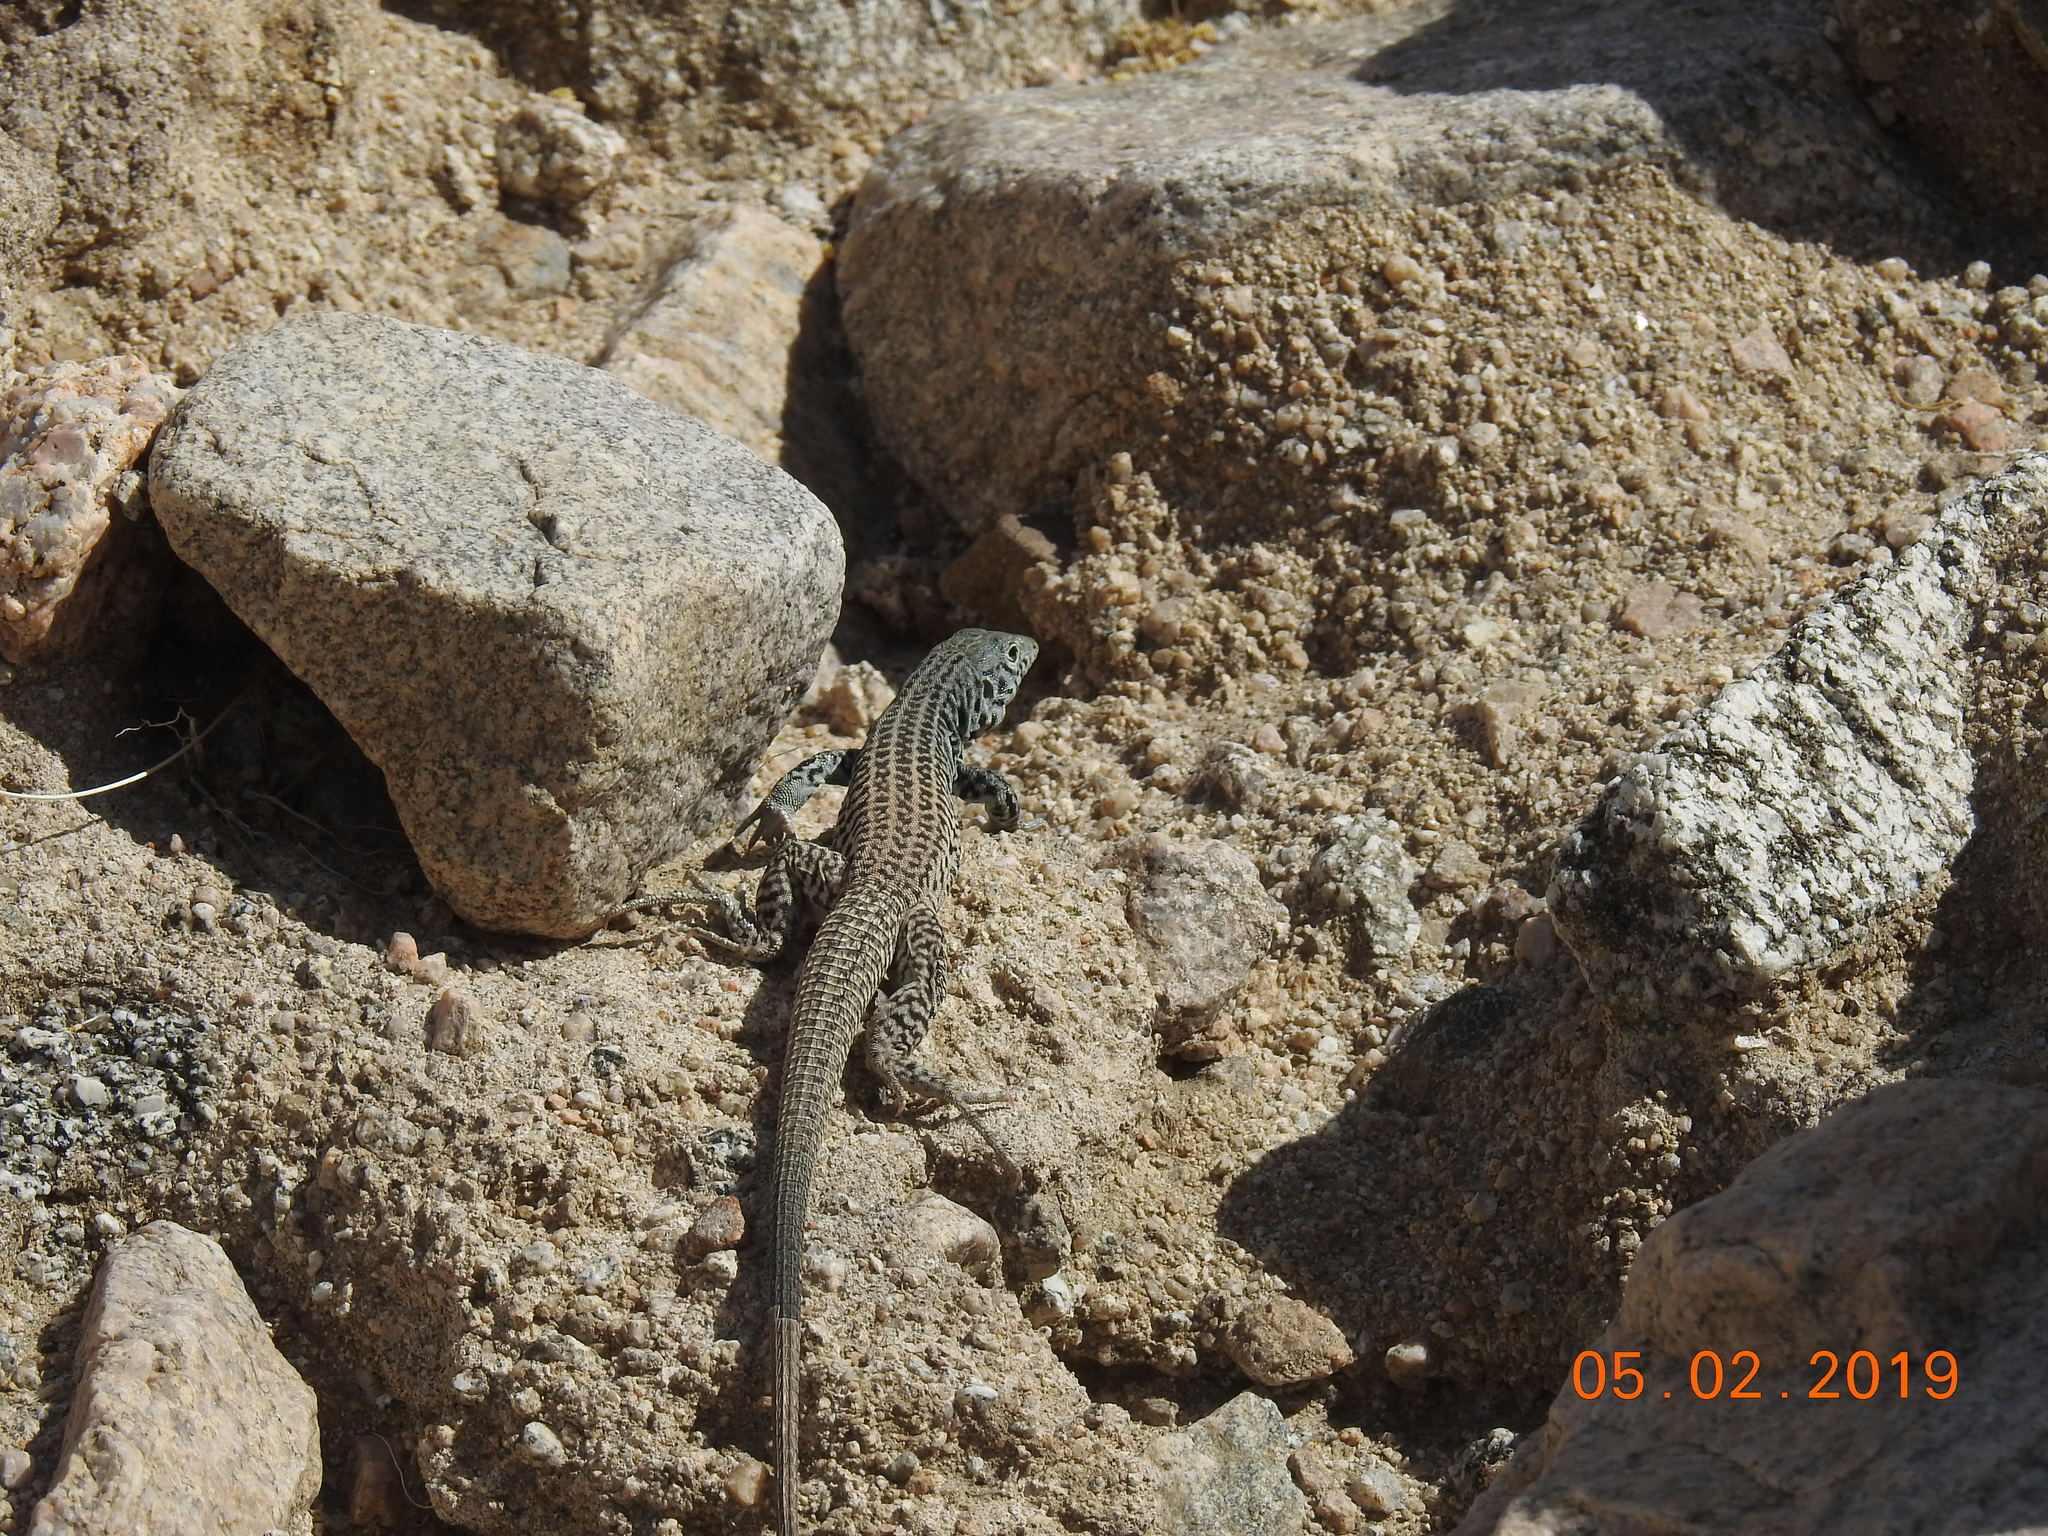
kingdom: Animalia
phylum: Chordata
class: Squamata
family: Teiidae
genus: Aspidoscelis
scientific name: Aspidoscelis tigris
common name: Tiger whiptail
